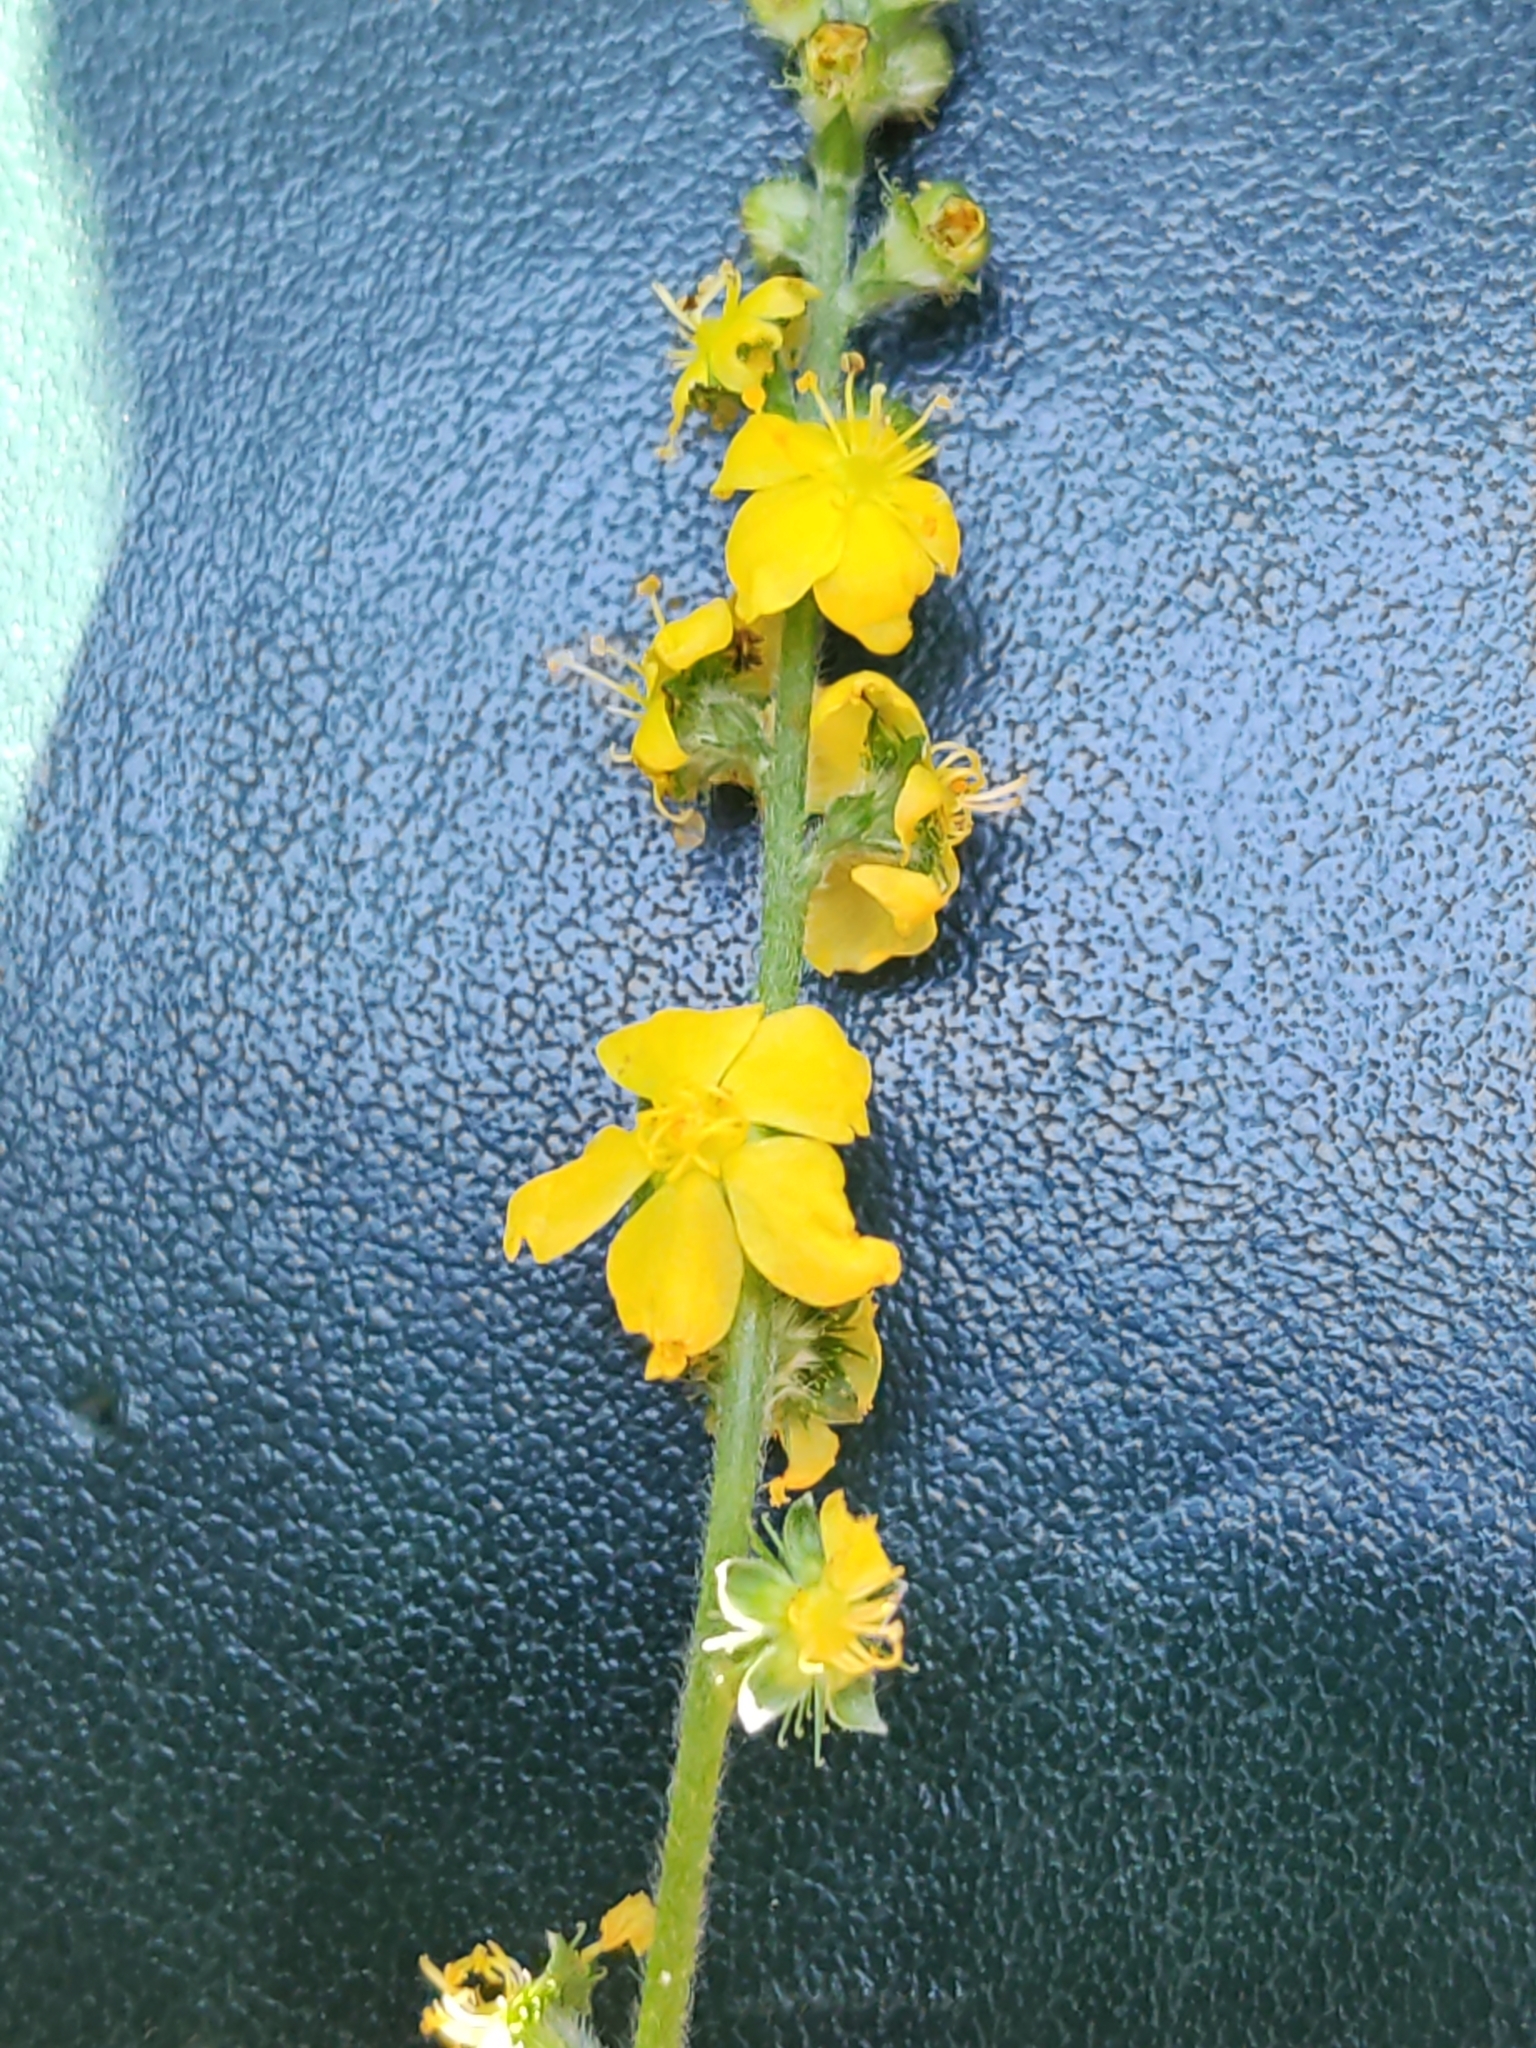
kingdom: Plantae
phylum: Tracheophyta
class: Magnoliopsida
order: Rosales
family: Rosaceae
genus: Agrimonia
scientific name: Agrimonia eupatoria
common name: Agrimony
